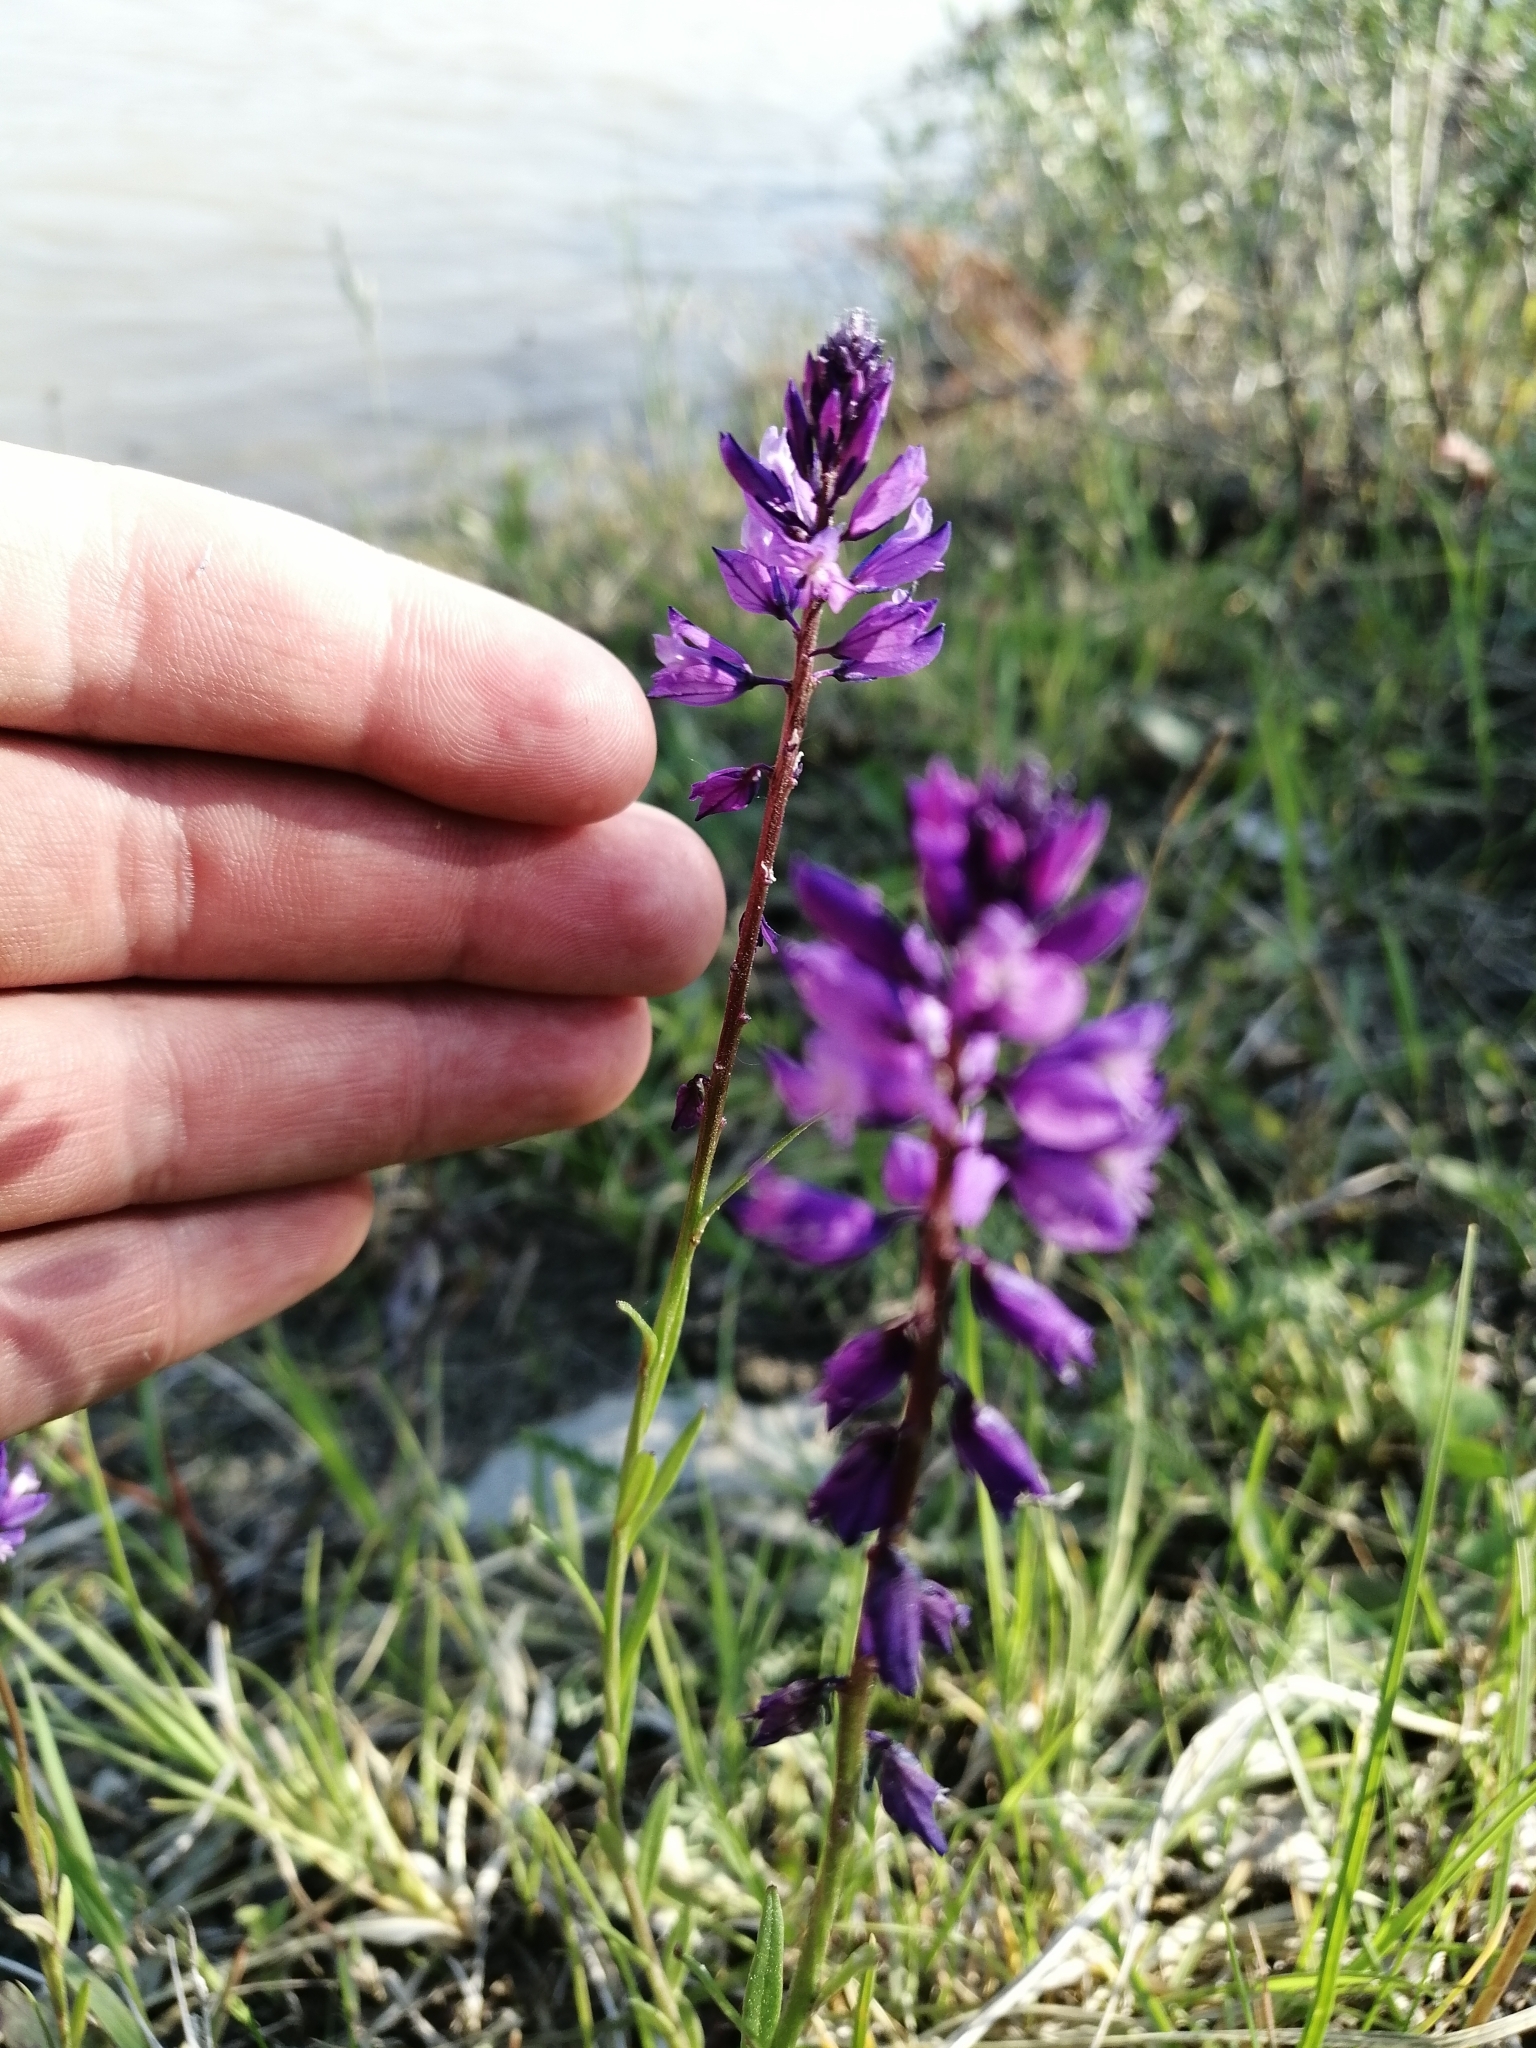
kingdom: Plantae
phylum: Tracheophyta
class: Magnoliopsida
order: Fabales
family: Polygalaceae
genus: Polygala
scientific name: Polygala comosa
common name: Tufted milkwort
